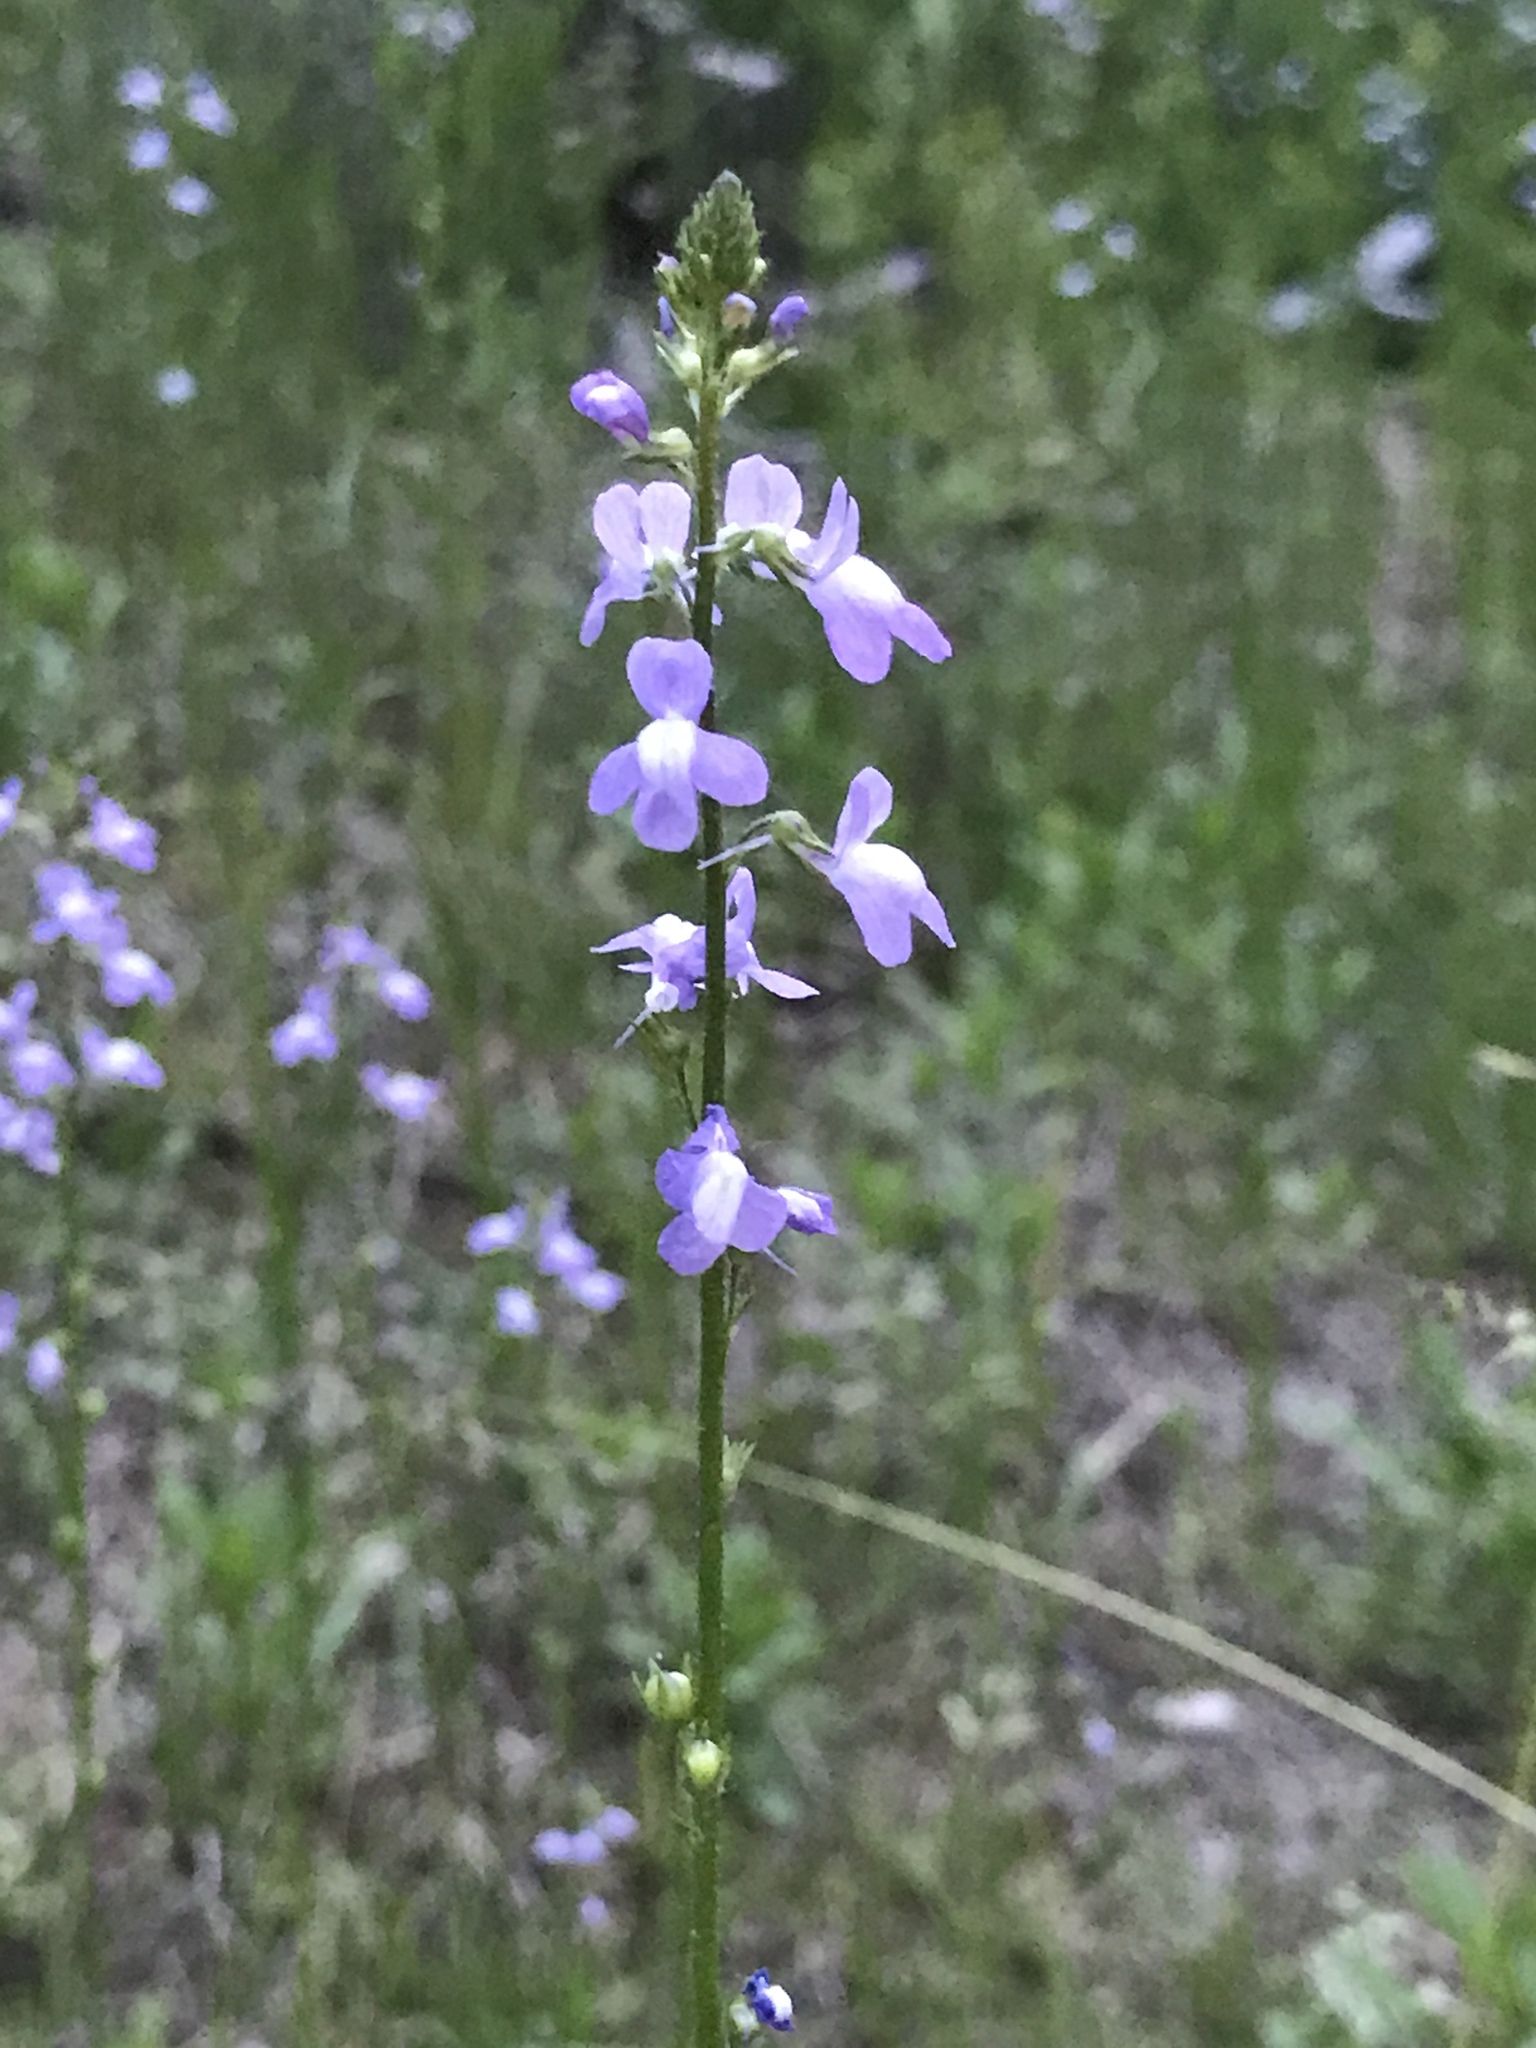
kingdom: Plantae
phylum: Tracheophyta
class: Magnoliopsida
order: Lamiales
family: Plantaginaceae
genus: Nuttallanthus
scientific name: Nuttallanthus canadensis
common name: Blue toadflax
